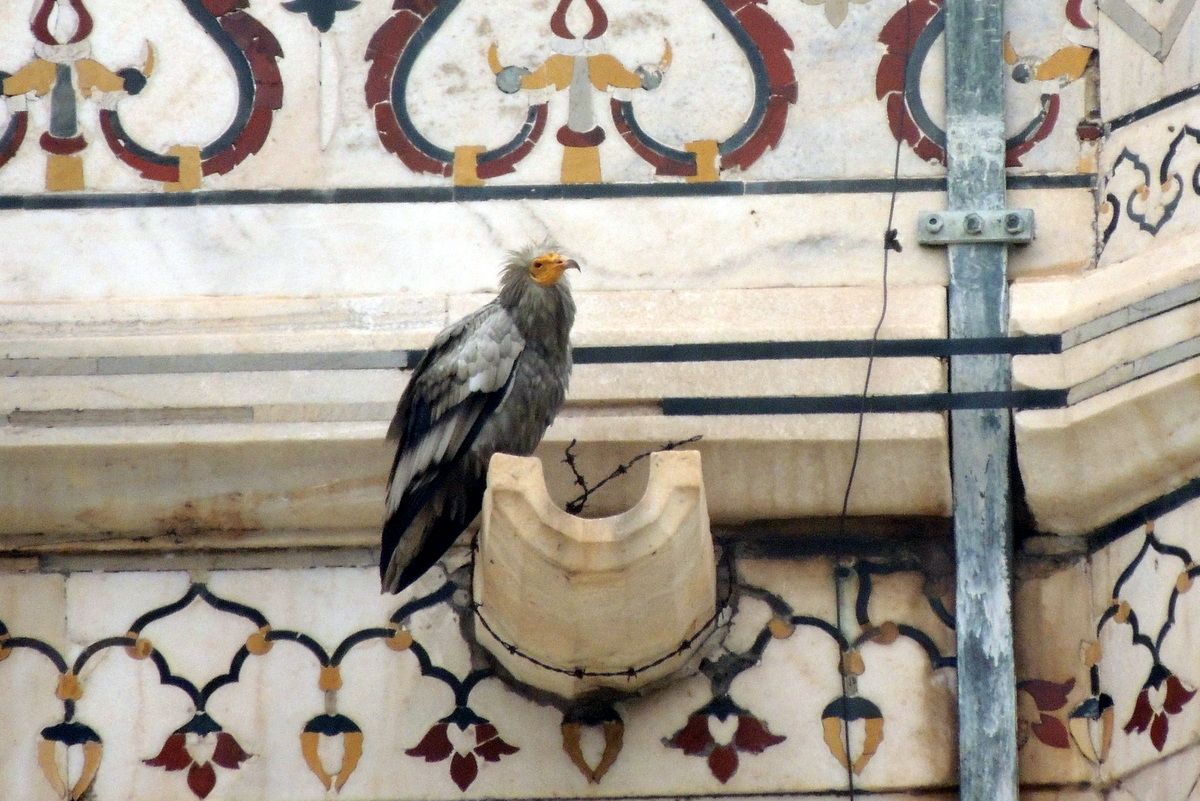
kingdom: Animalia
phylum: Chordata
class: Aves
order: Accipitriformes
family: Accipitridae
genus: Neophron
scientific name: Neophron percnopterus
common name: Egyptian vulture
